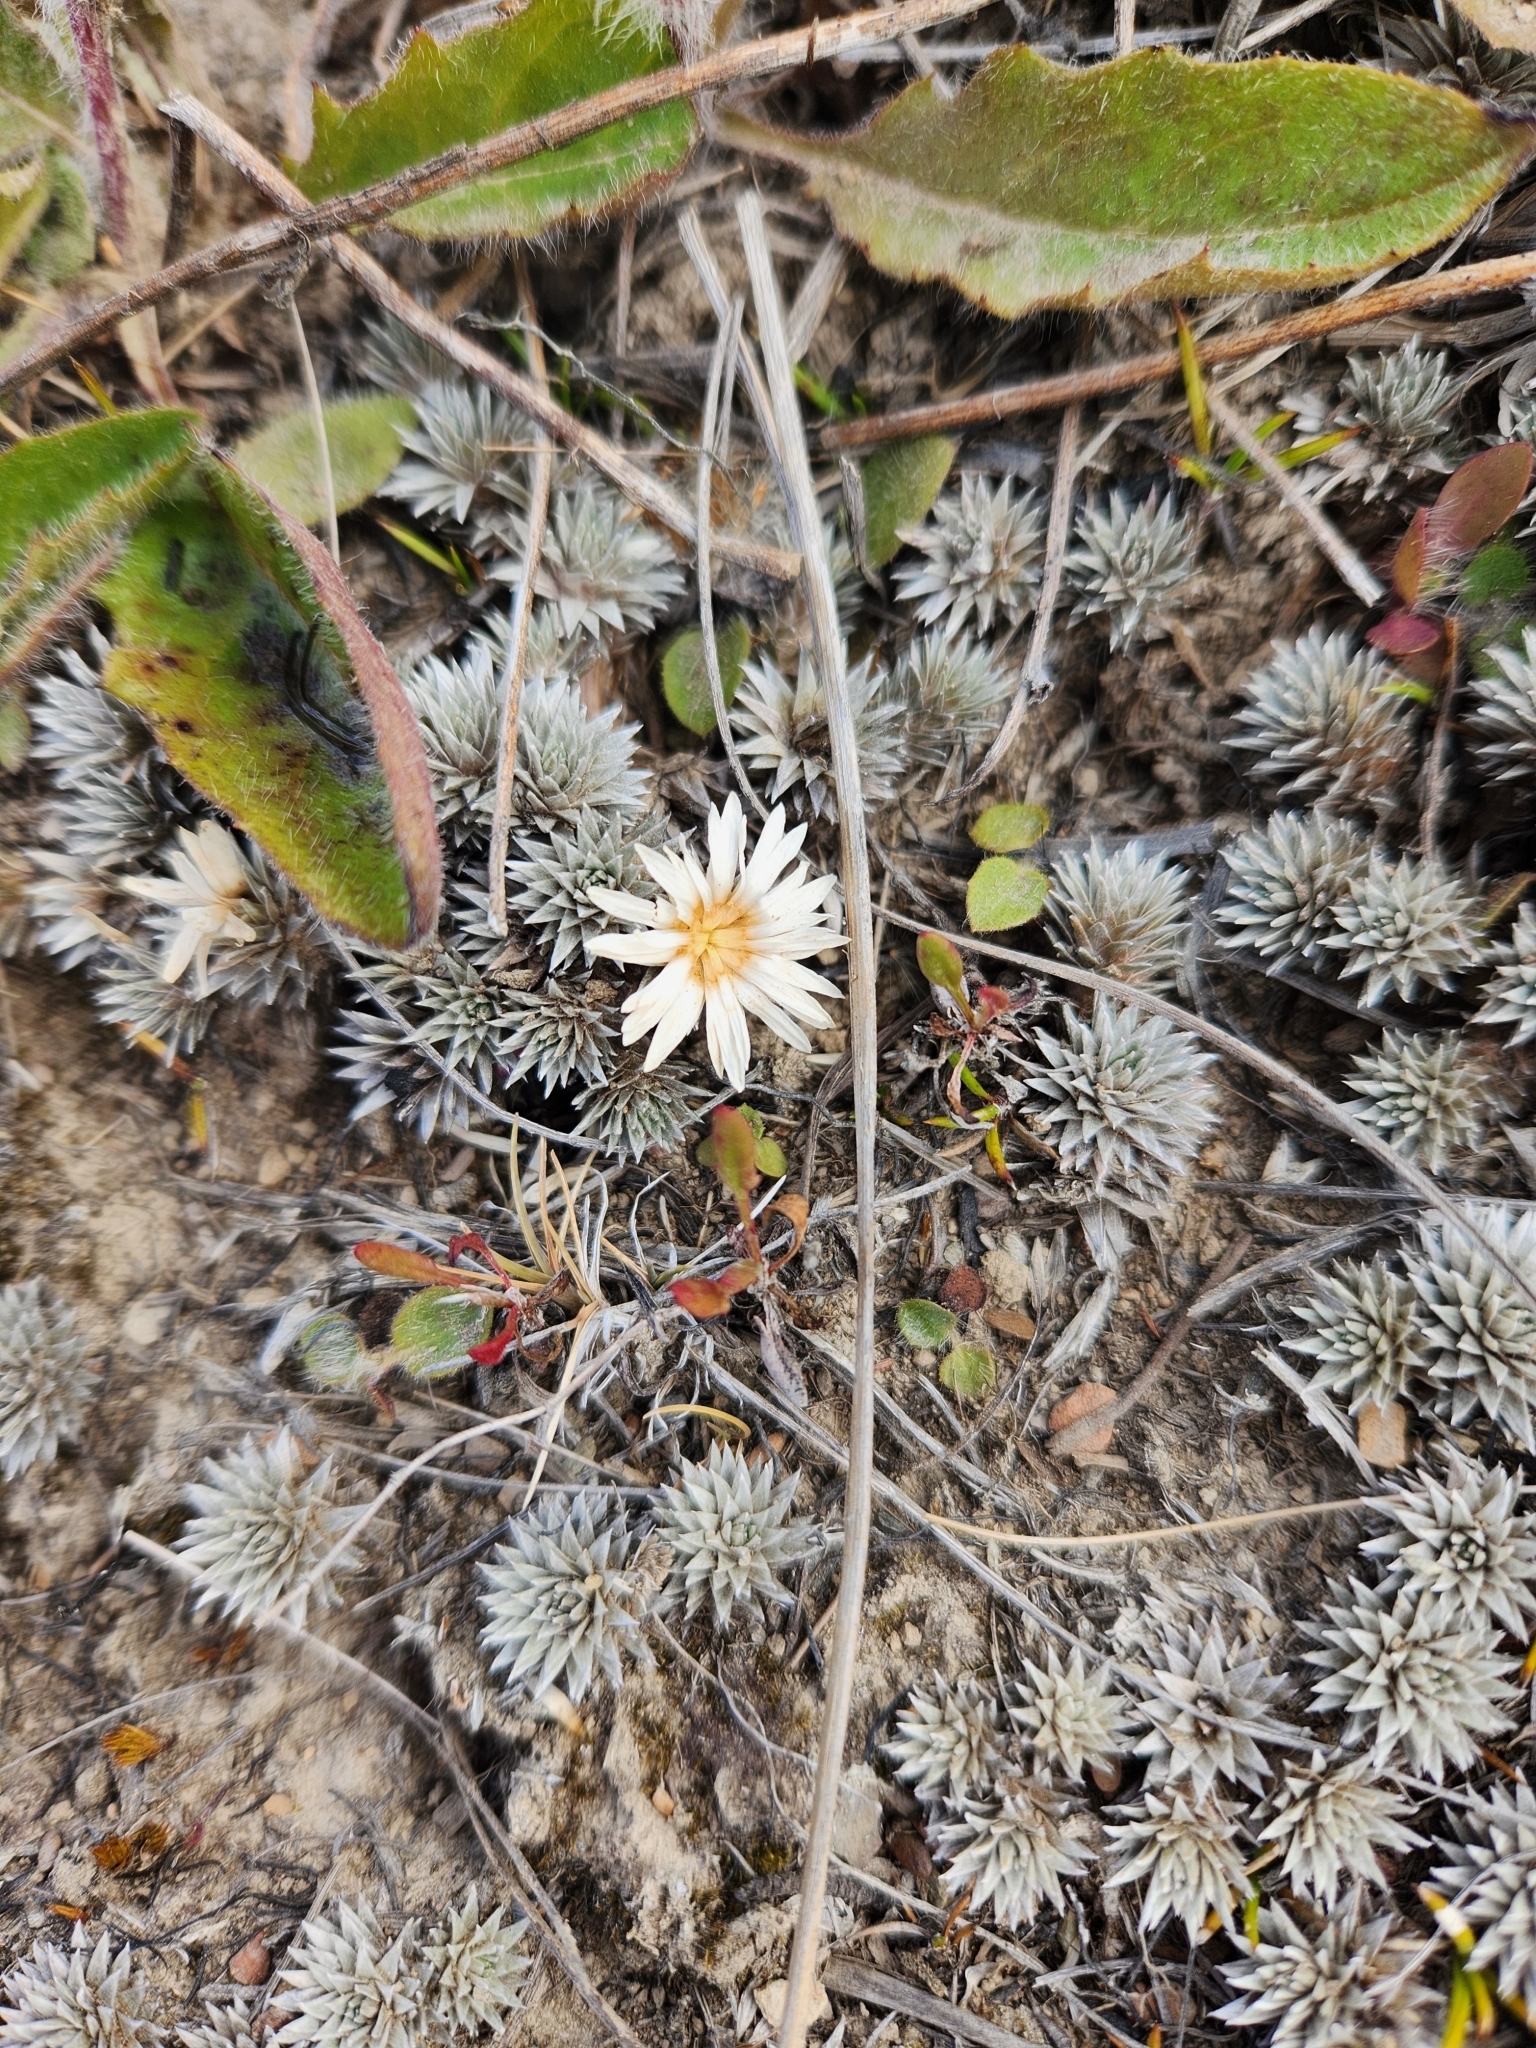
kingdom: Plantae
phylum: Tracheophyta
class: Magnoliopsida
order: Asterales
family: Asteraceae
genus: Raoulia
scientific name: Raoulia grandiflora
